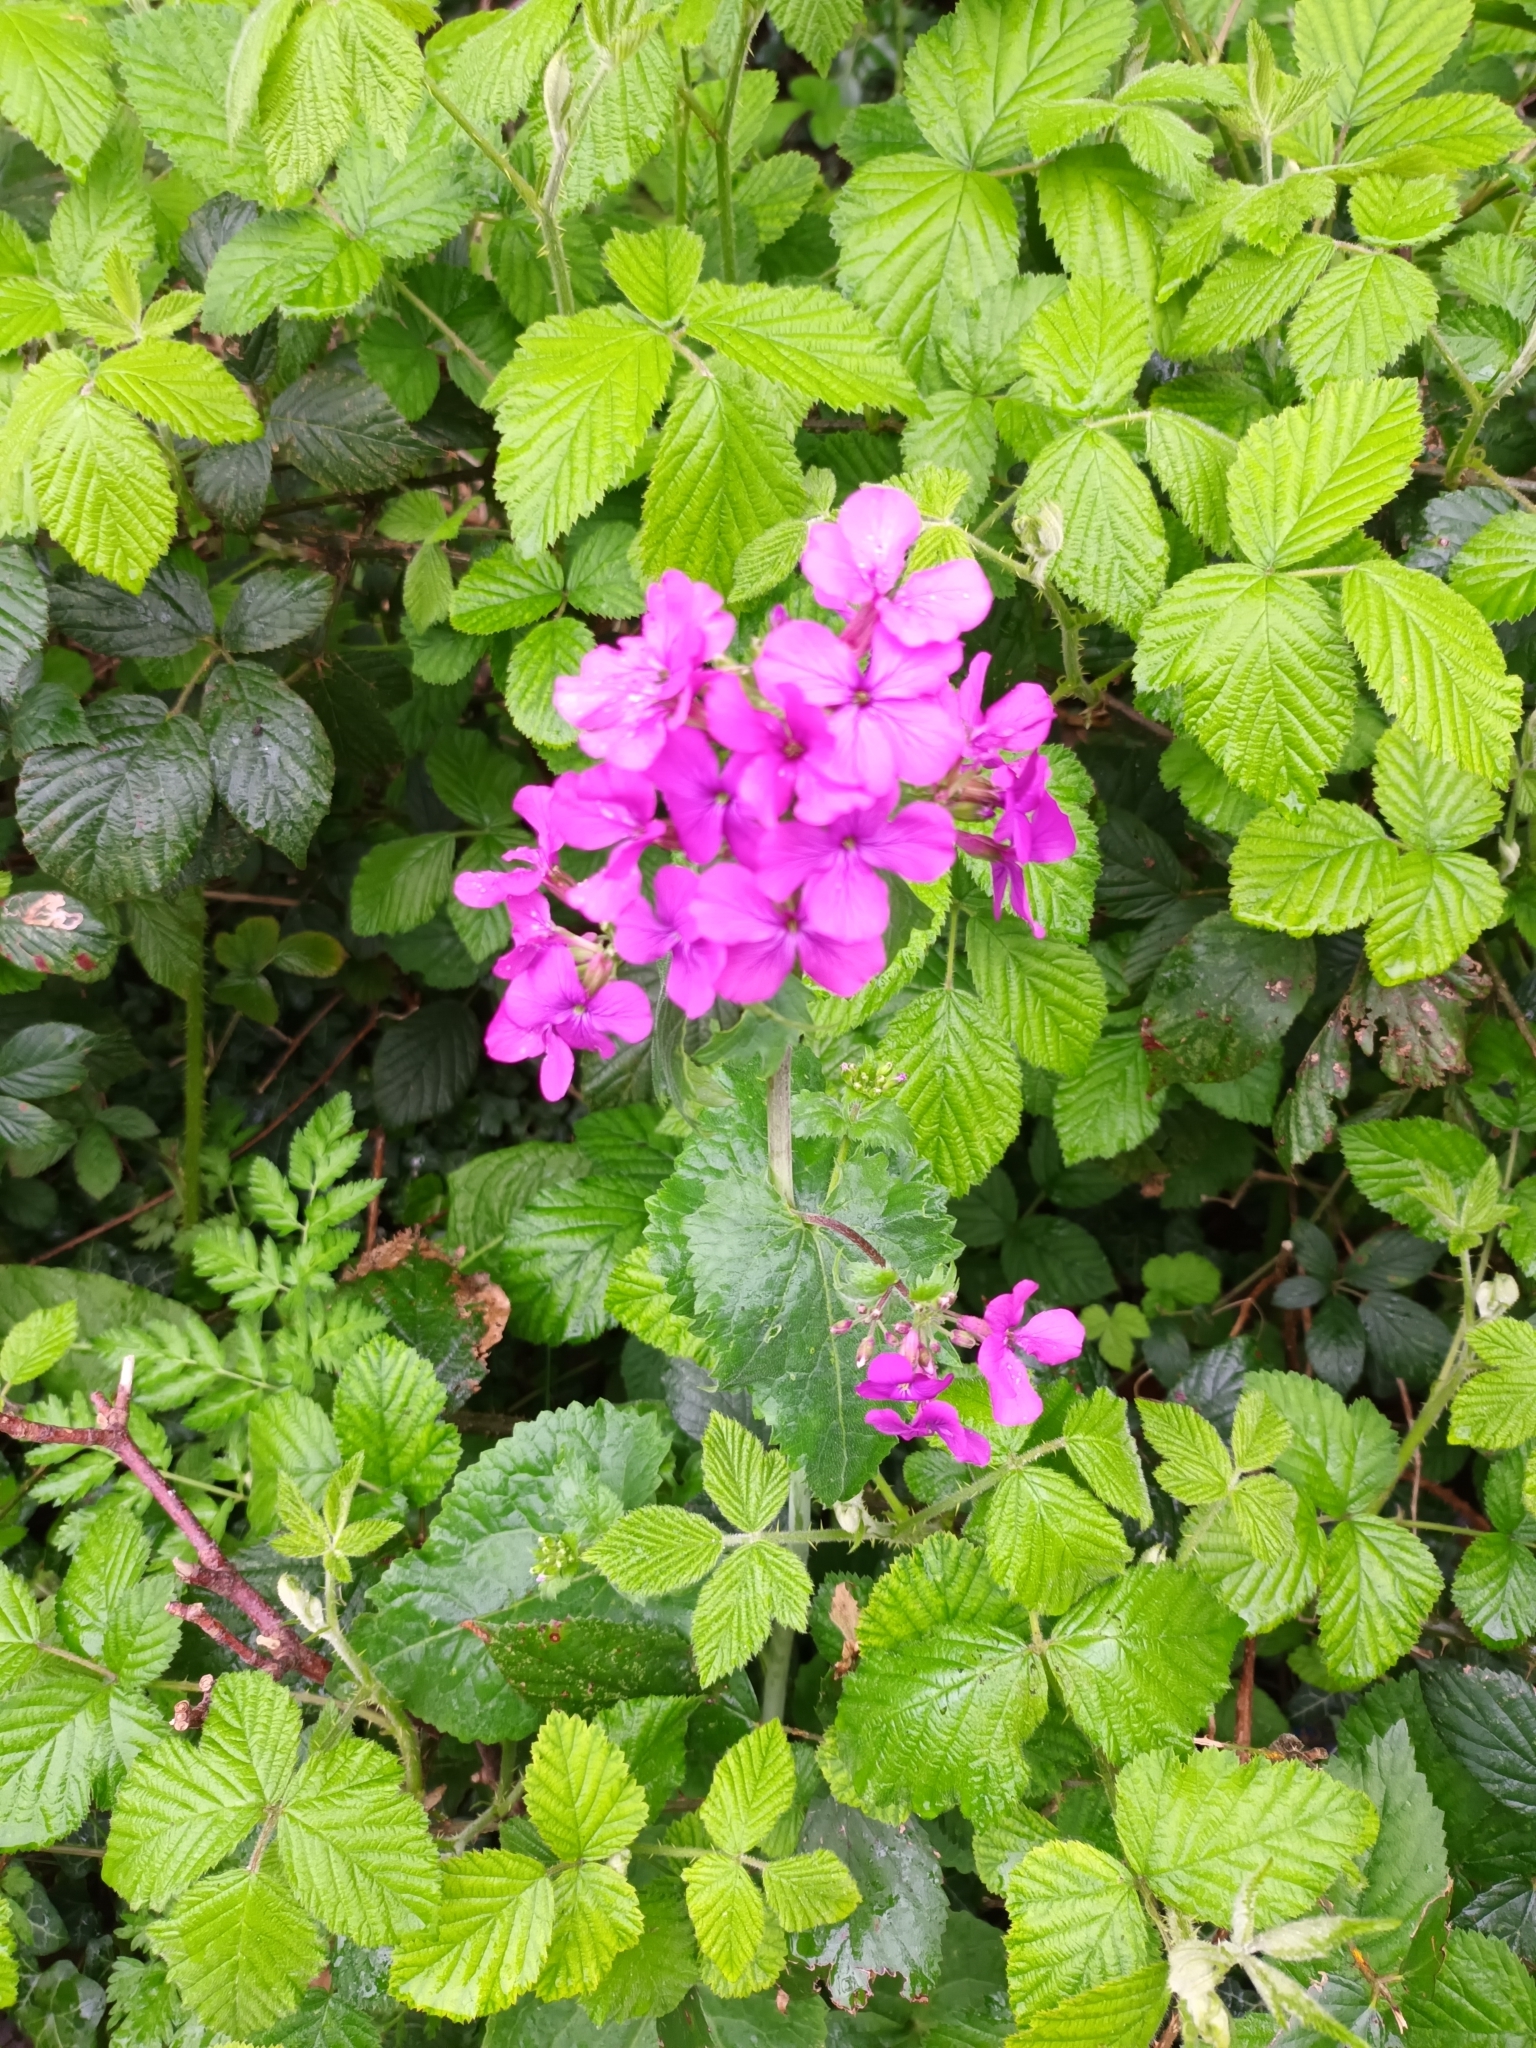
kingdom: Plantae
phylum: Tracheophyta
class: Magnoliopsida
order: Brassicales
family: Brassicaceae
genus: Lunaria
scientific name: Lunaria annua
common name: Honesty
